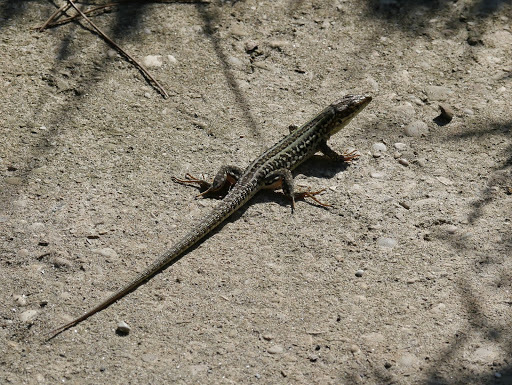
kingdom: Animalia
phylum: Chordata
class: Squamata
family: Lacertidae
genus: Podarcis
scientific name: Podarcis siculus
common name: Italian wall lizard
